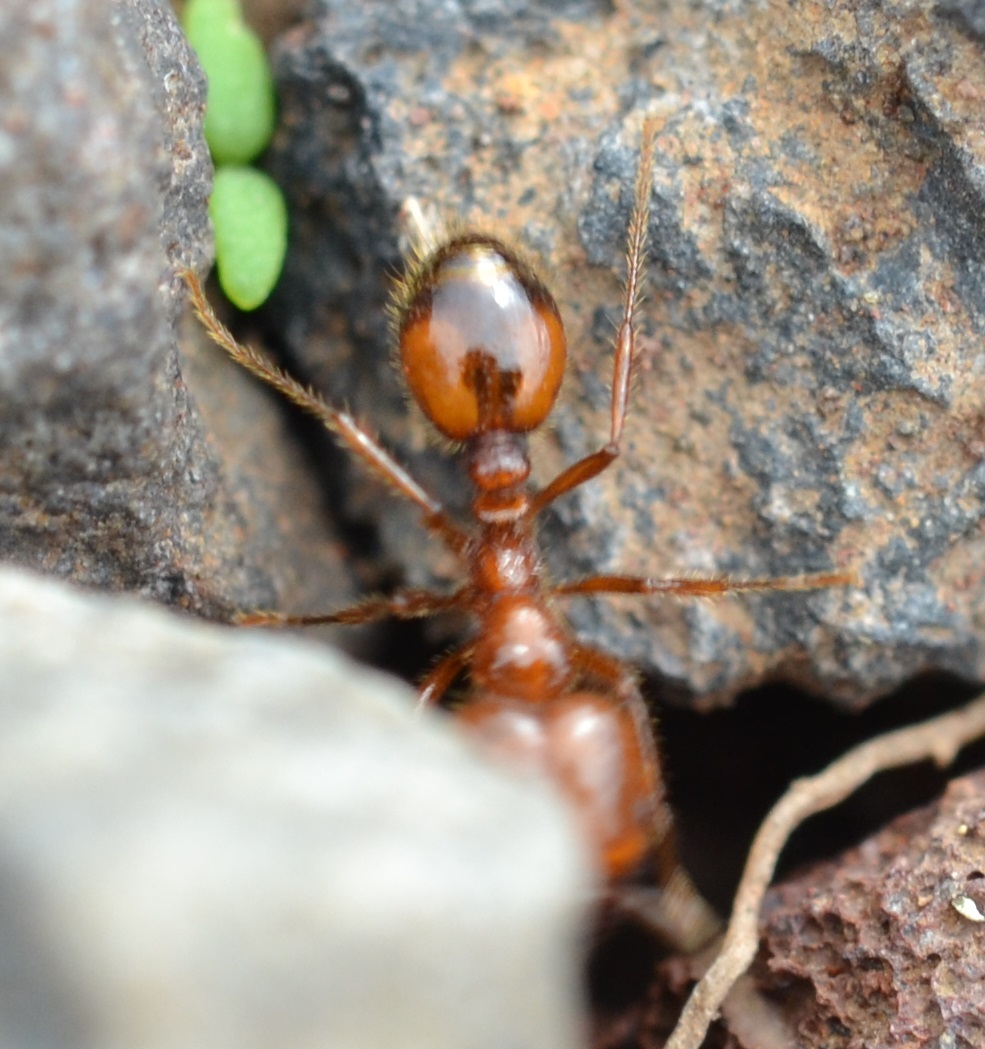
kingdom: Animalia
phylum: Arthropoda
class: Insecta
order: Hymenoptera
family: Formicidae
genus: Solenopsis
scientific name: Solenopsis geminata
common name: Tropical fire ant
